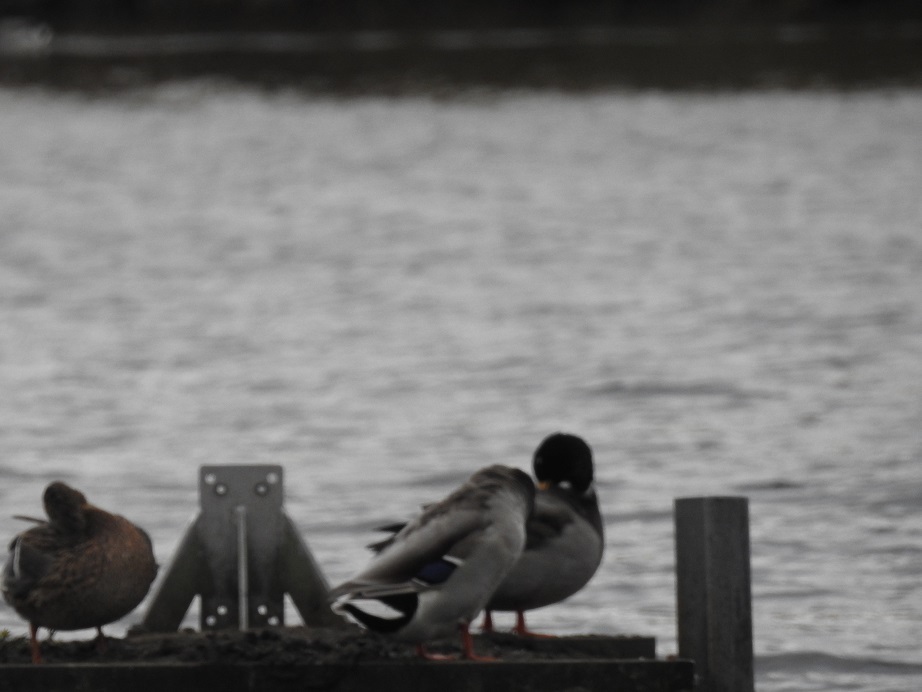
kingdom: Animalia
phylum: Chordata
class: Aves
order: Anseriformes
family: Anatidae
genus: Anas
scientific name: Anas platyrhynchos
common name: Mallard
